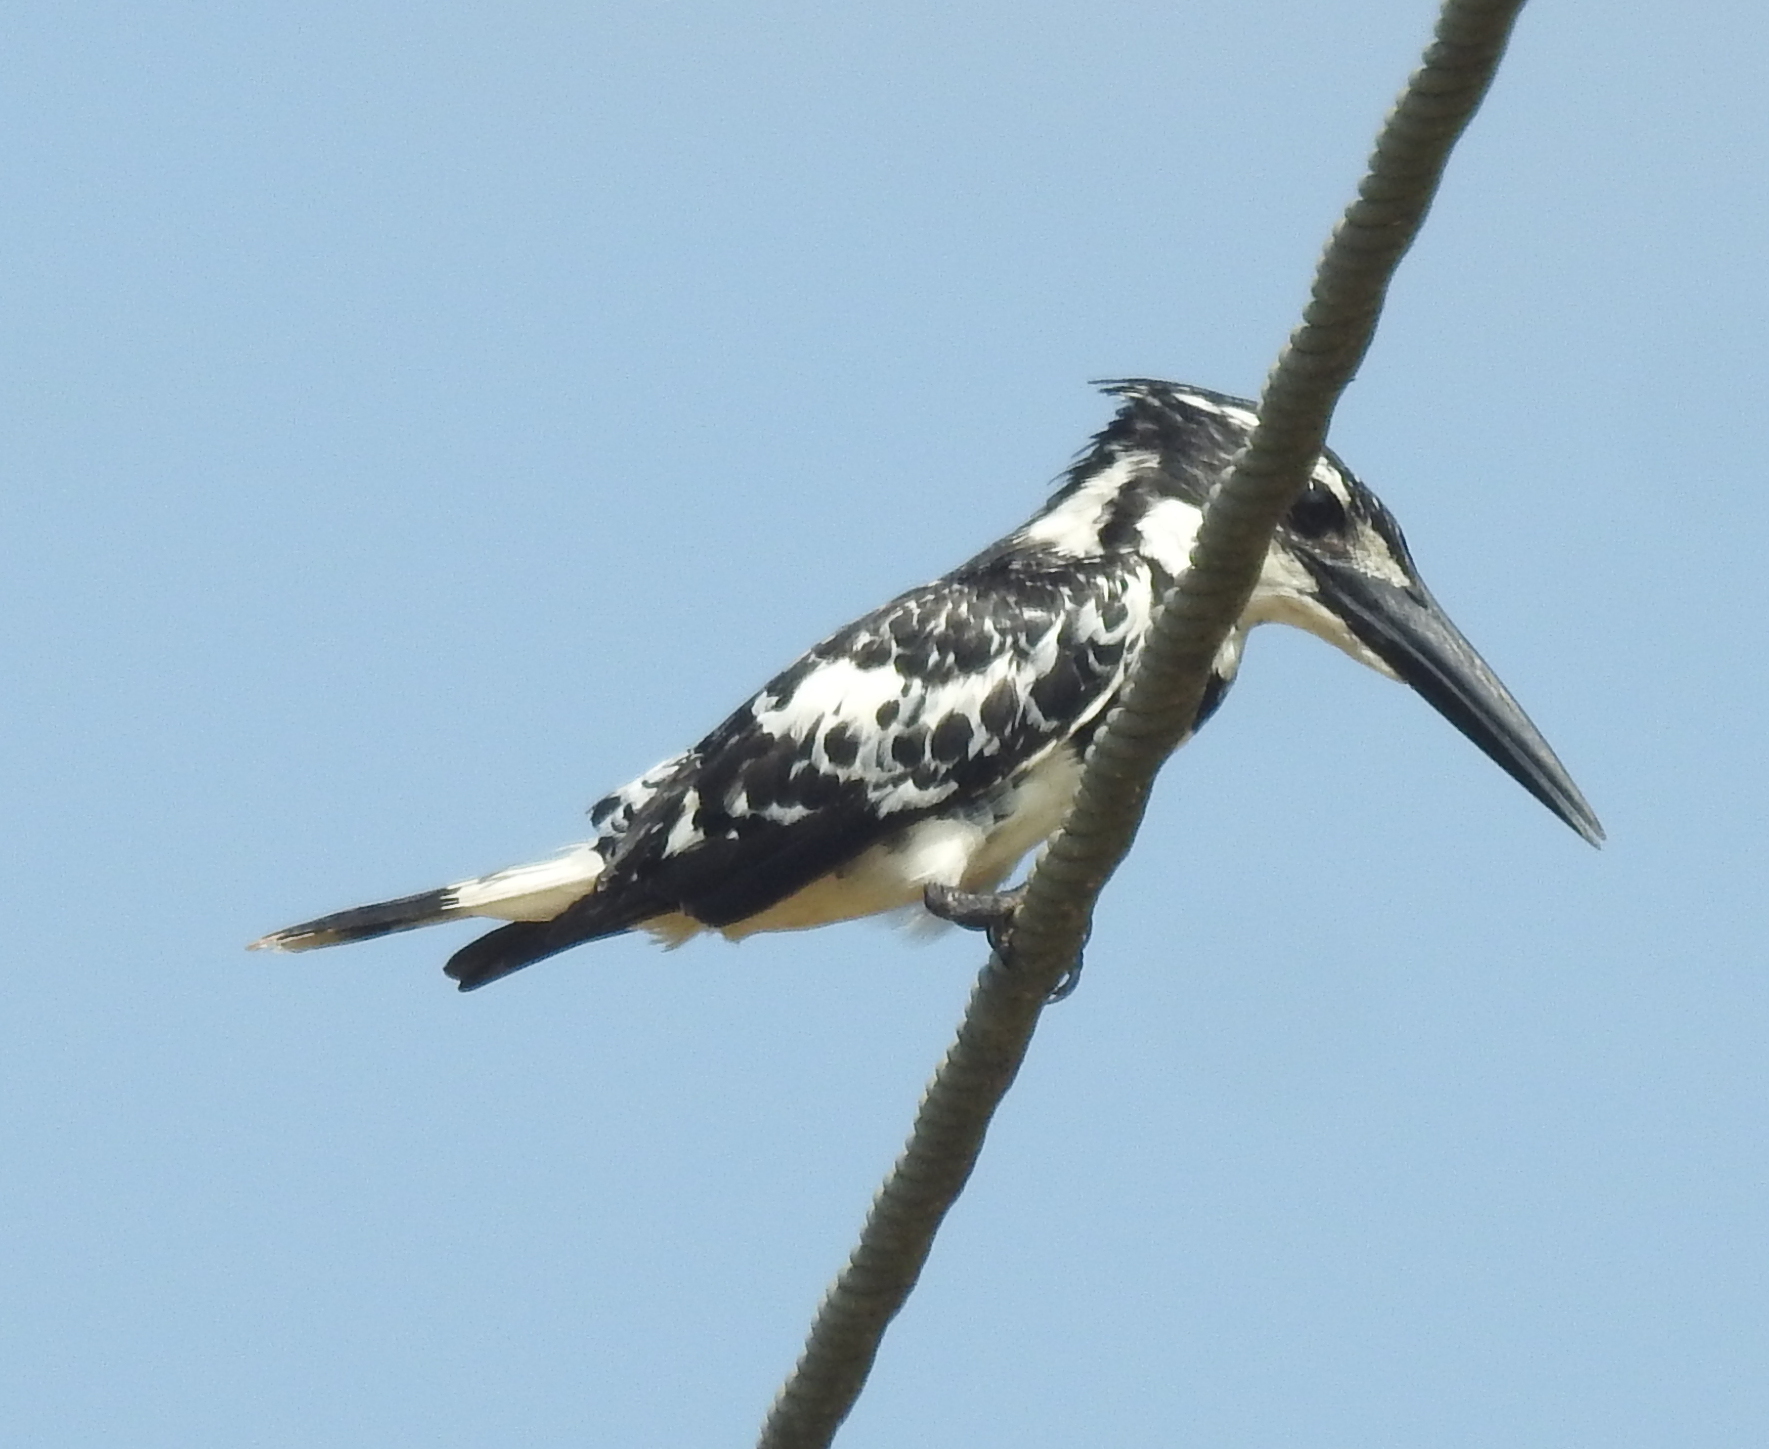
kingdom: Animalia
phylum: Chordata
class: Aves
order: Coraciiformes
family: Alcedinidae
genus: Ceryle
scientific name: Ceryle rudis
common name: Pied kingfisher
